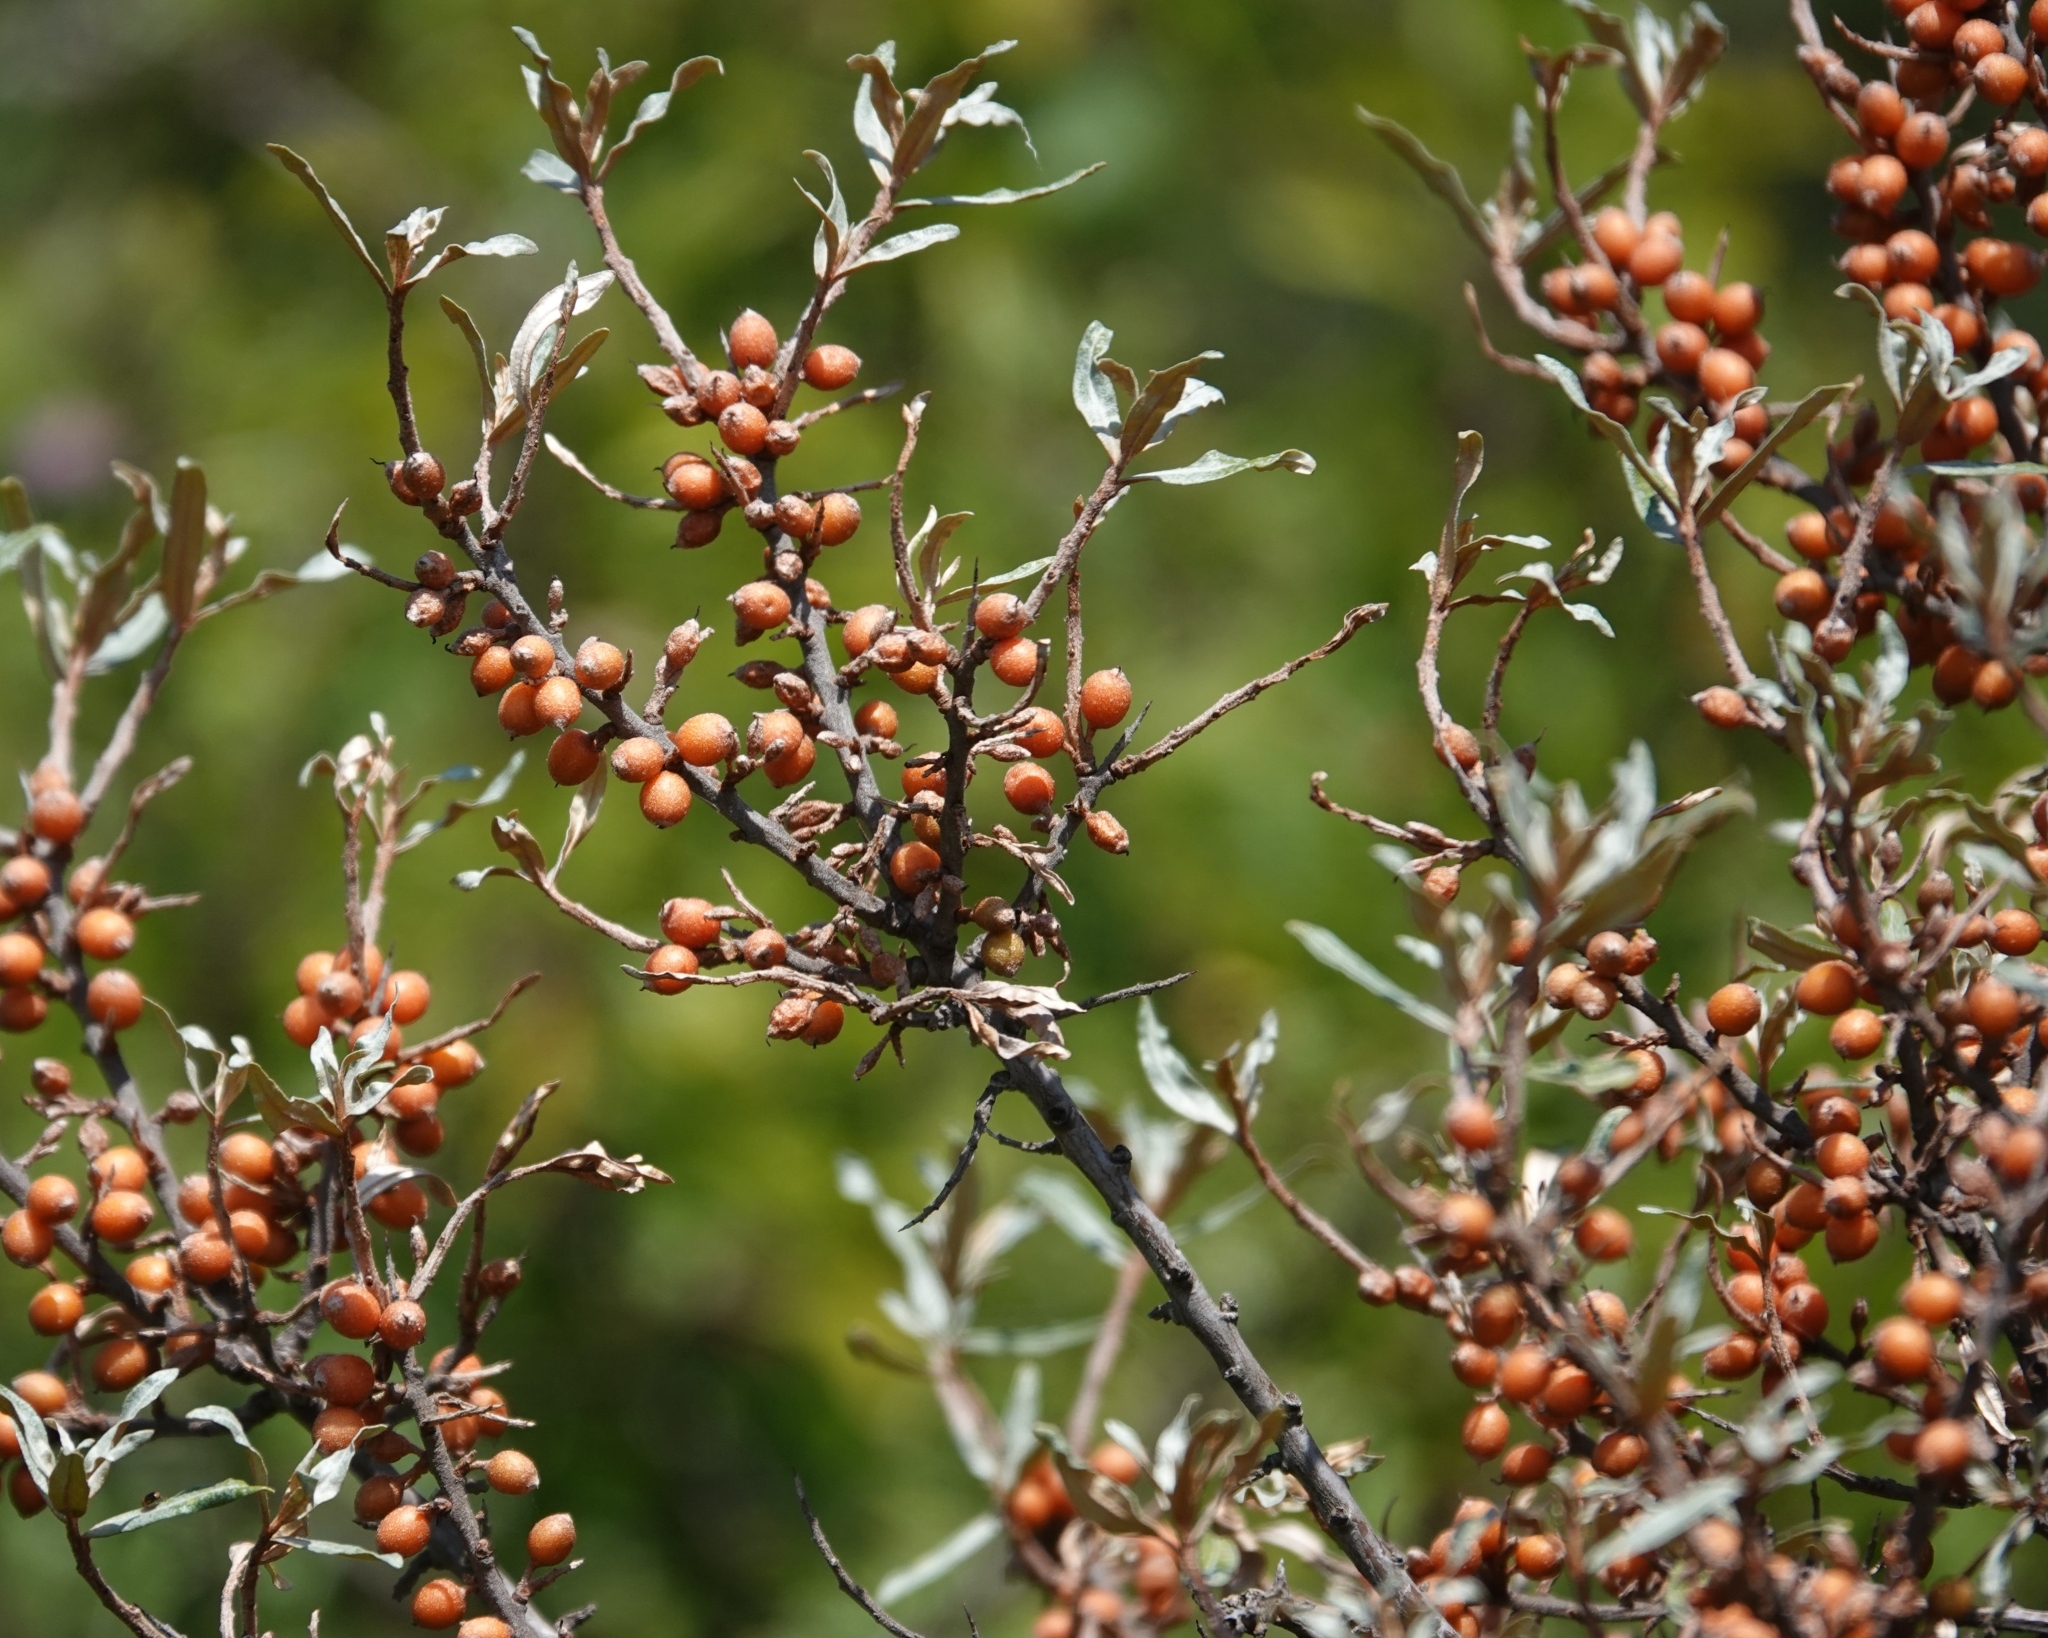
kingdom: Plantae
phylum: Tracheophyta
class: Magnoliopsida
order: Rosales
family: Elaeagnaceae
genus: Hippophae
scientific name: Hippophae rhamnoides
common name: Sea-buckthorn
